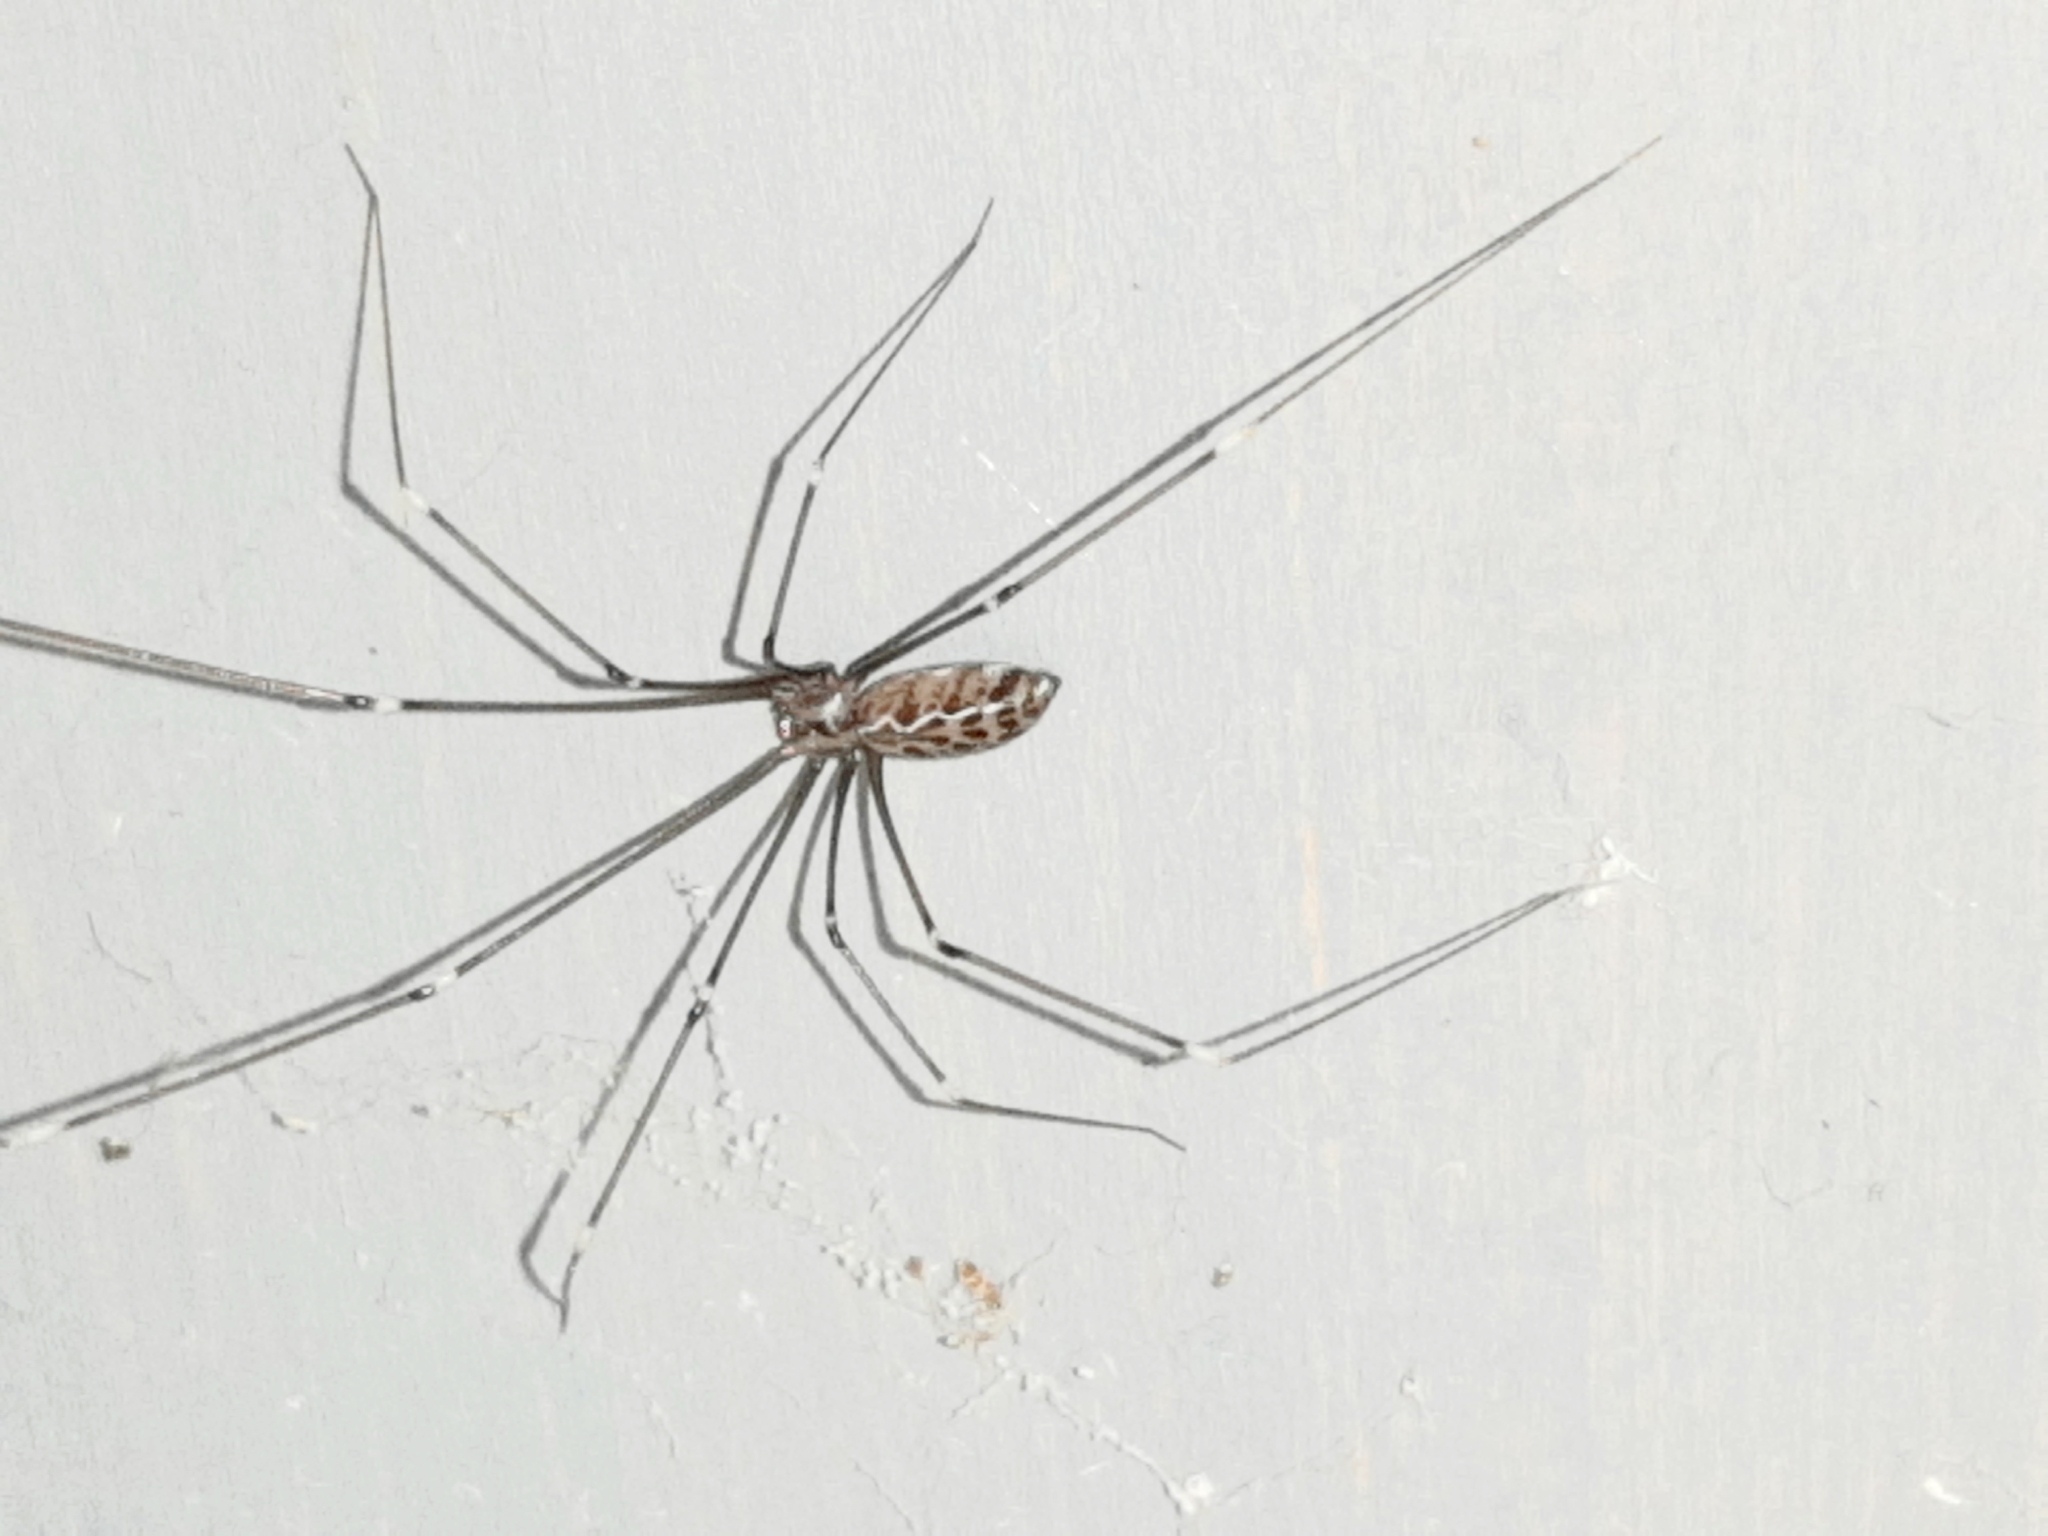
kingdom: Animalia
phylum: Arthropoda
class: Arachnida
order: Araneae
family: Pholcidae
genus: Smeringopus
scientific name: Smeringopus pallidus
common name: Cellar spider
